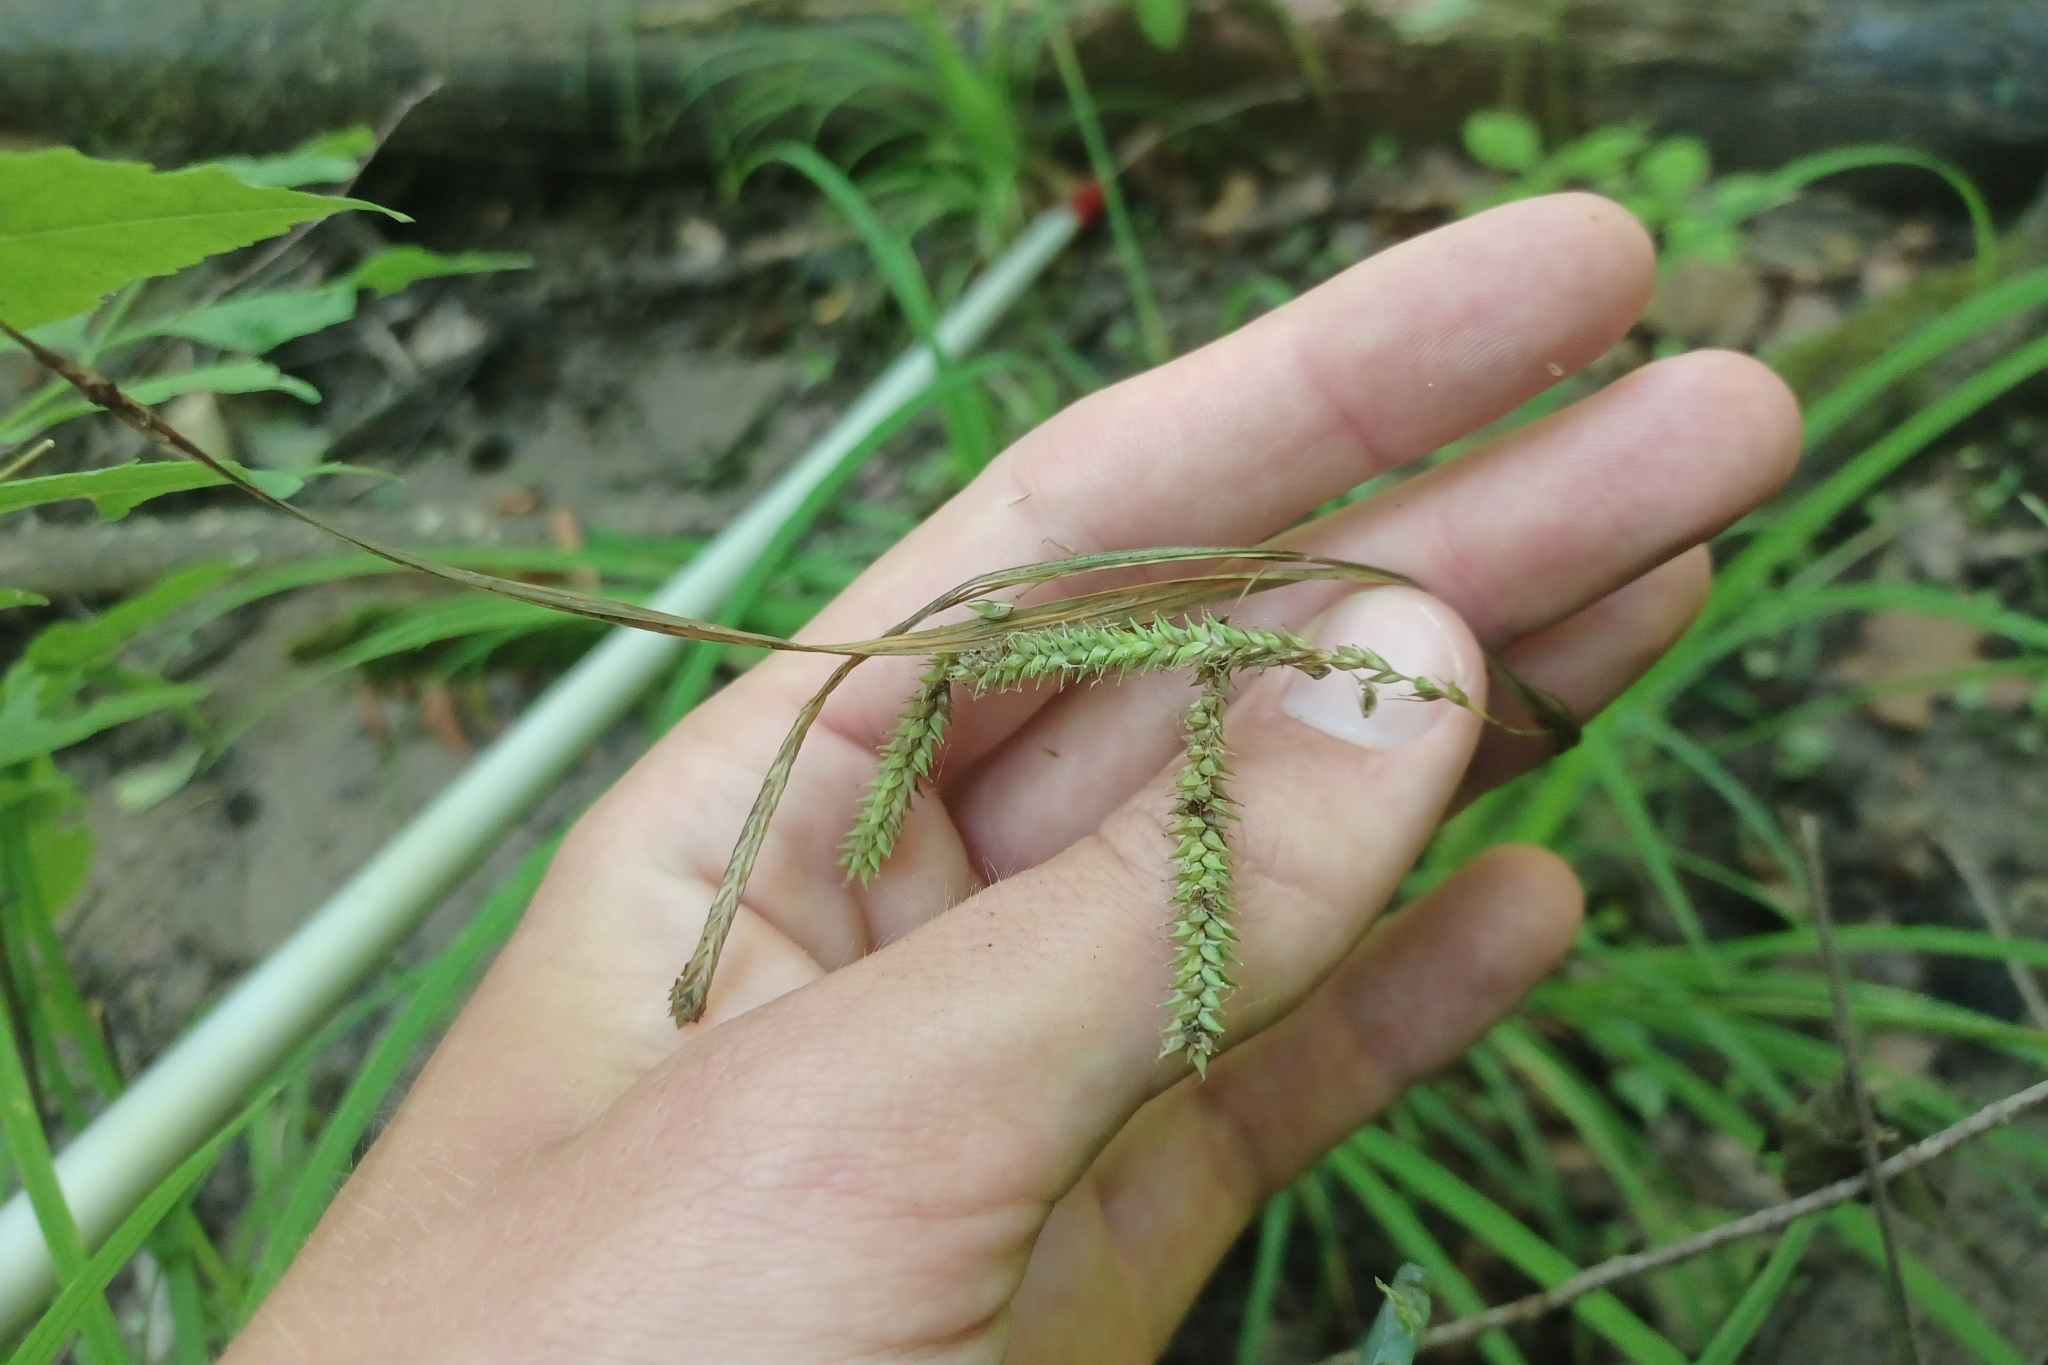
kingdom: Plantae
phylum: Tracheophyta
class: Liliopsida
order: Poales
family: Cyperaceae
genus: Carex
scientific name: Carex prasina
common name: Drooping sedge
